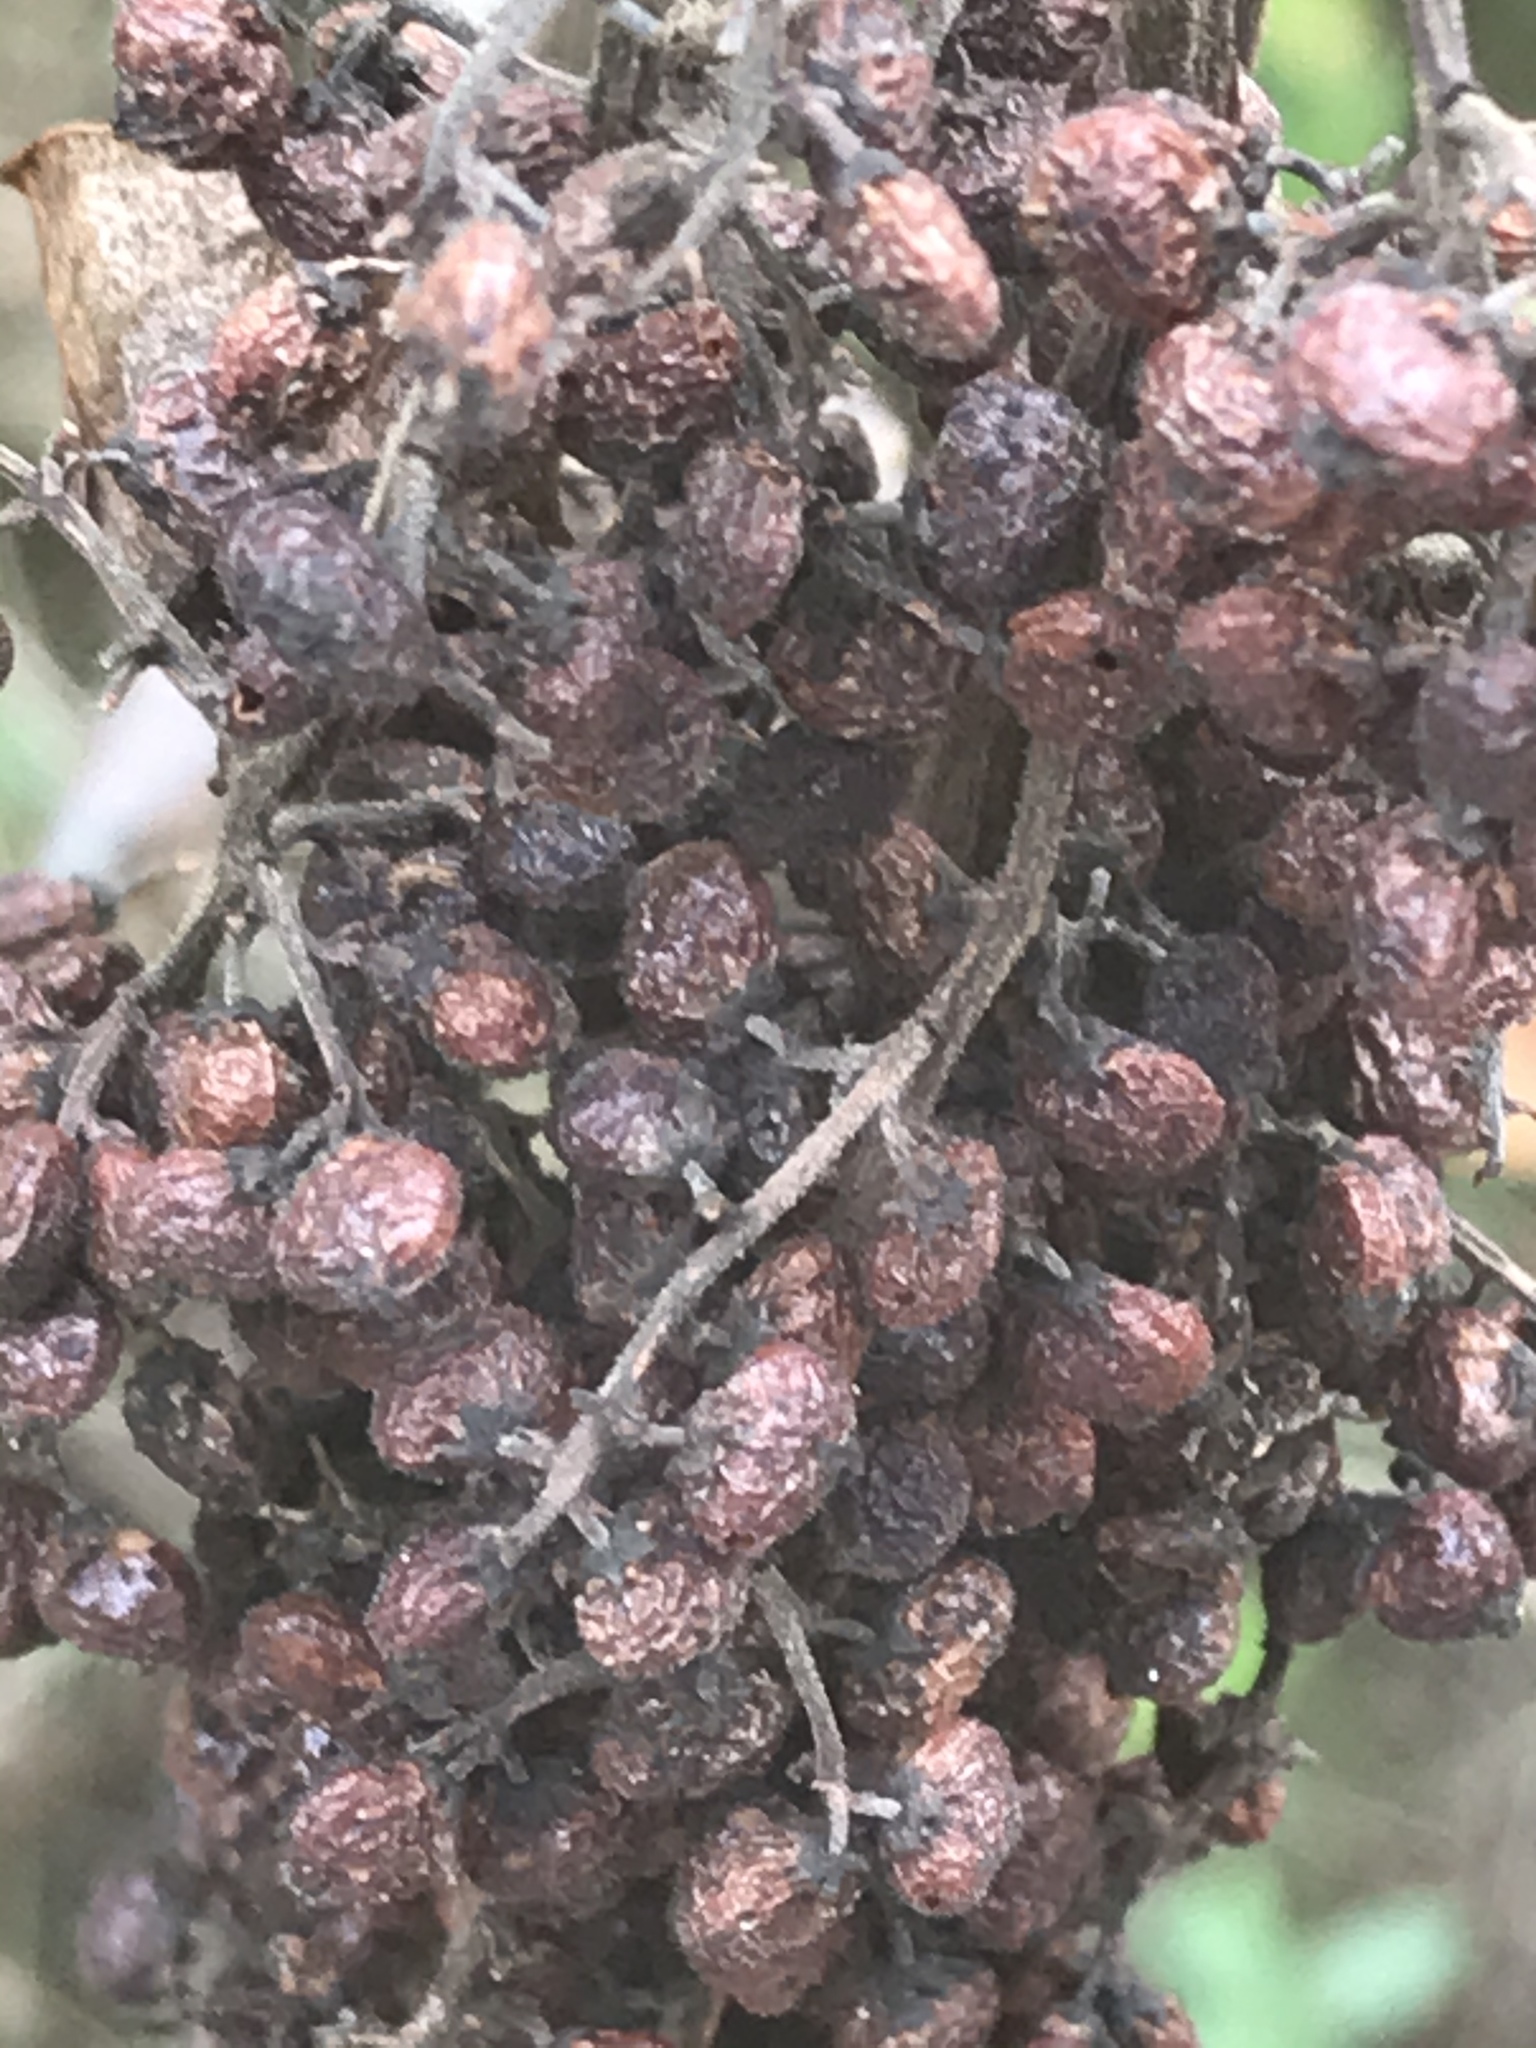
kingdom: Plantae
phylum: Tracheophyta
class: Magnoliopsida
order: Sapindales
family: Anacardiaceae
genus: Rhus
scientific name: Rhus copallina
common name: Shining sumac
